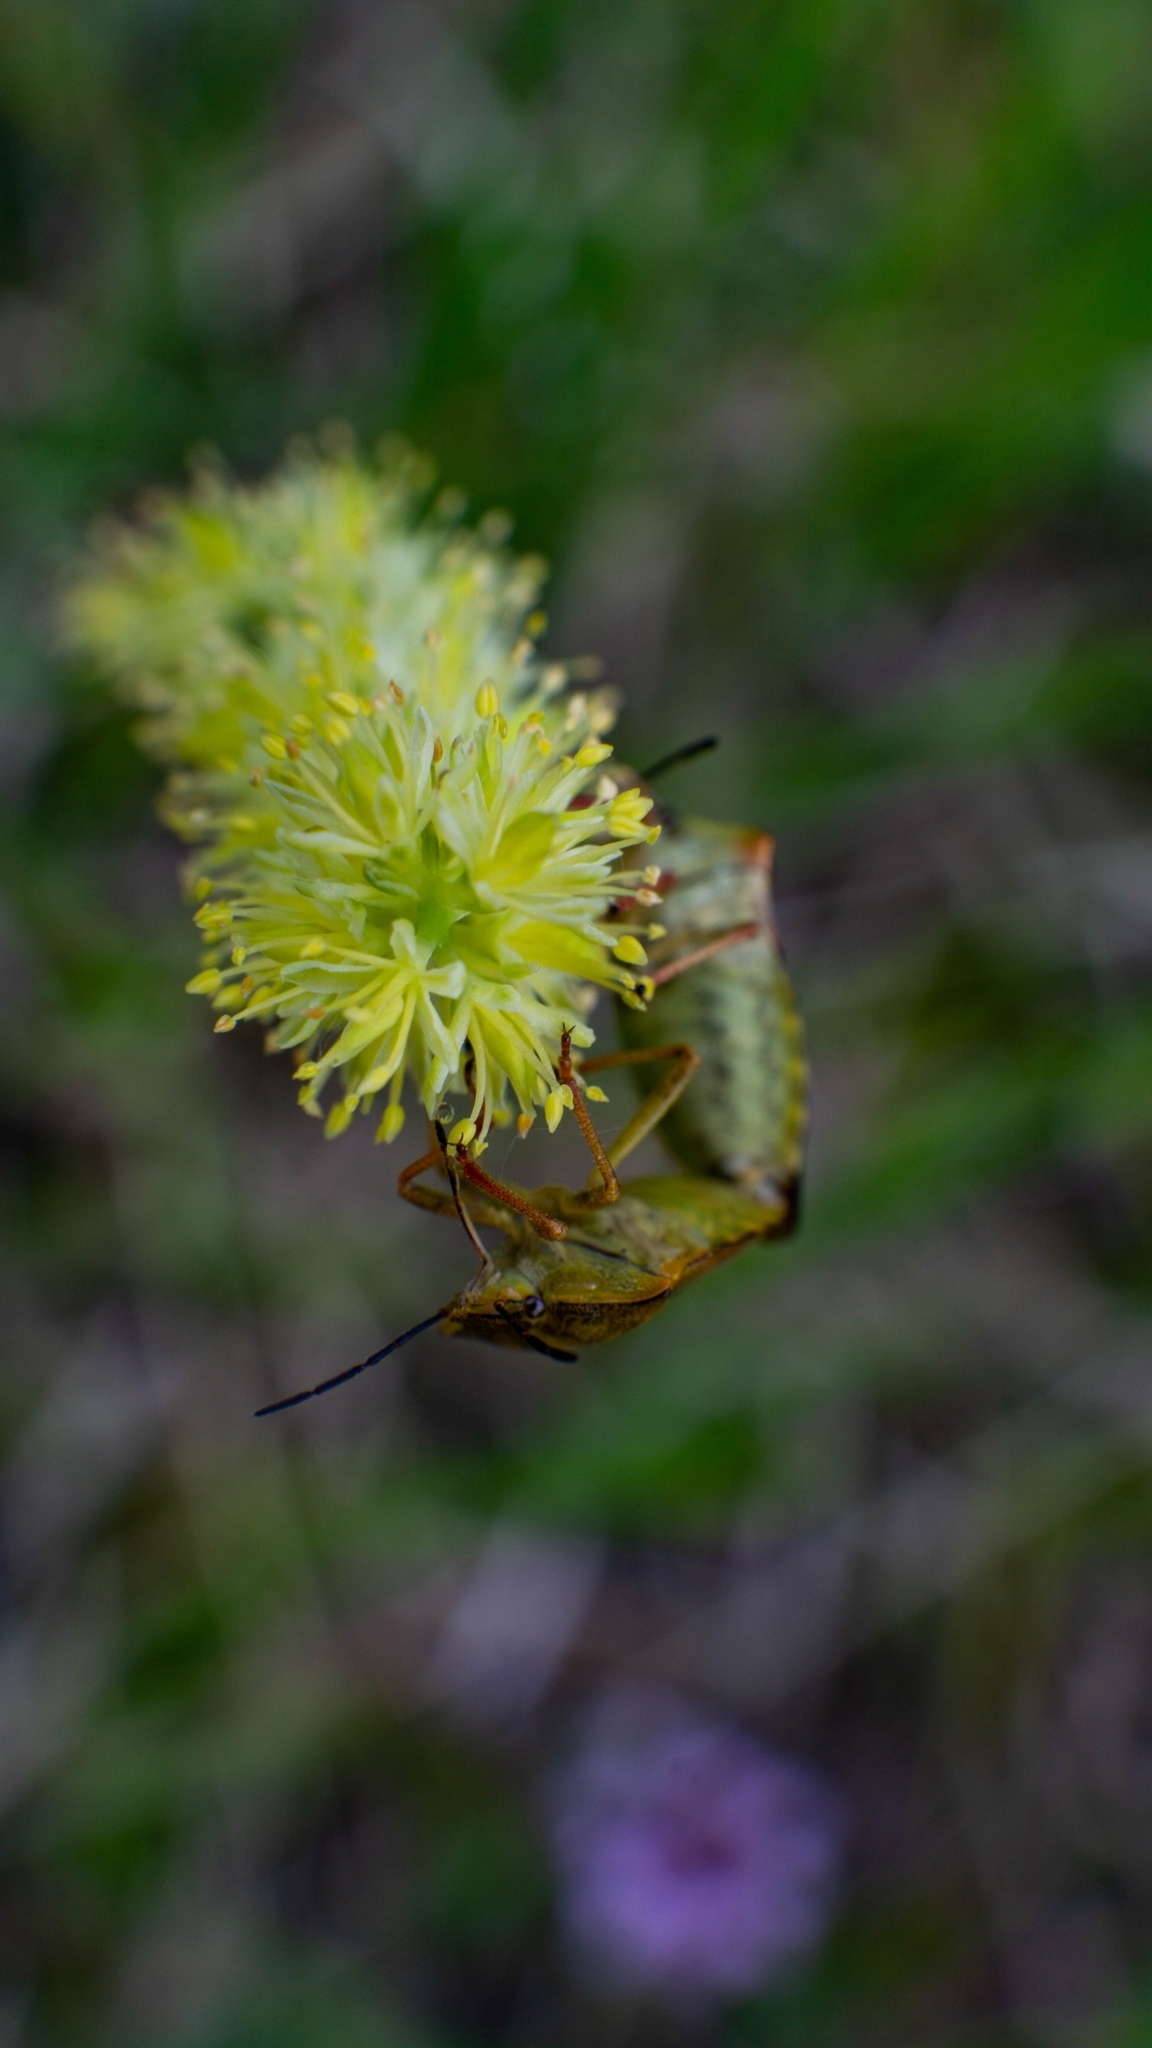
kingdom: Animalia
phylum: Arthropoda
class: Insecta
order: Hemiptera
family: Pentatomidae
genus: Carpocoris
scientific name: Carpocoris purpureipennis
